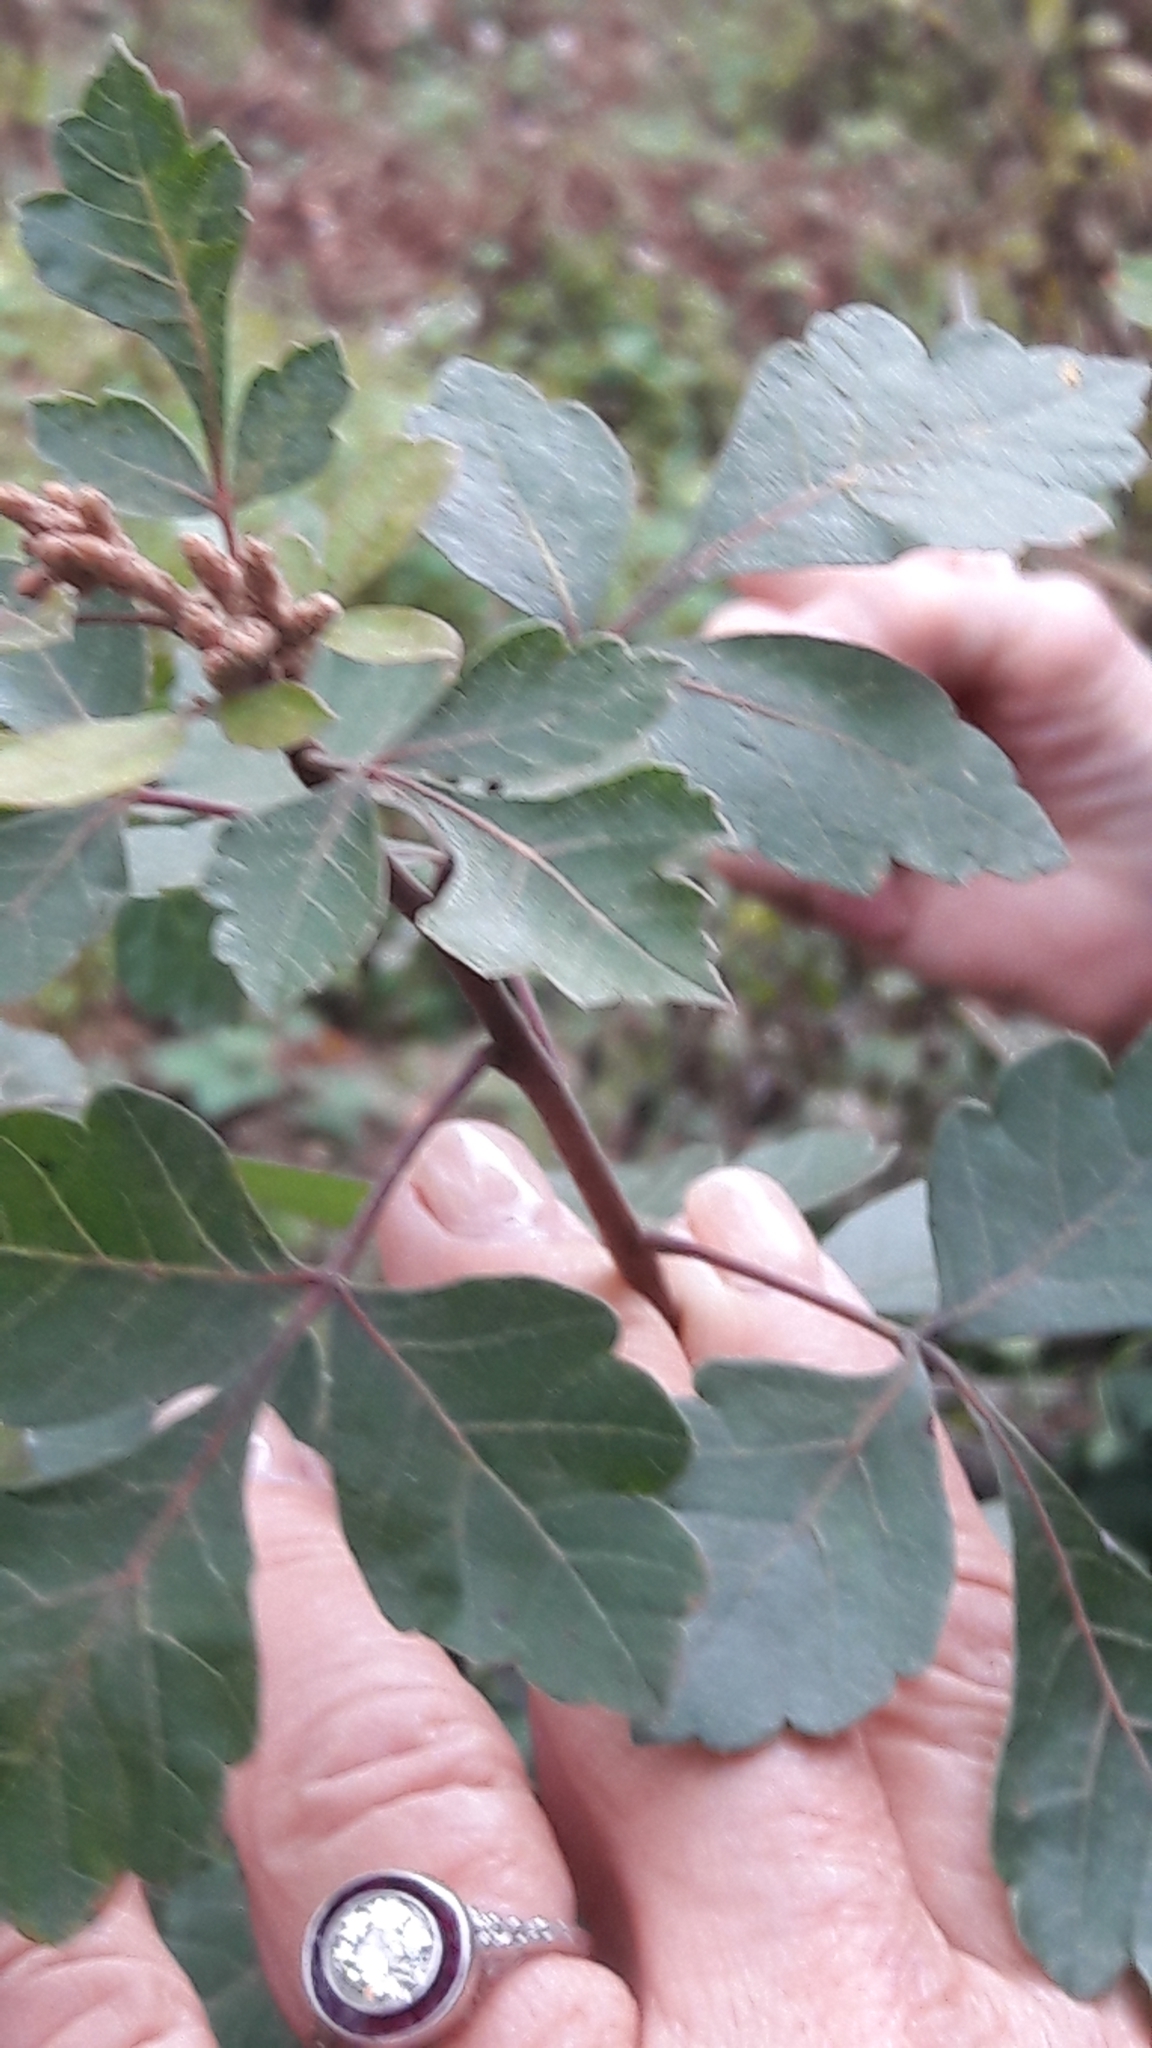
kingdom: Plantae
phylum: Tracheophyta
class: Magnoliopsida
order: Sapindales
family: Anacardiaceae
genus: Rhus
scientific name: Rhus aromatica
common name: Aromatic sumac
